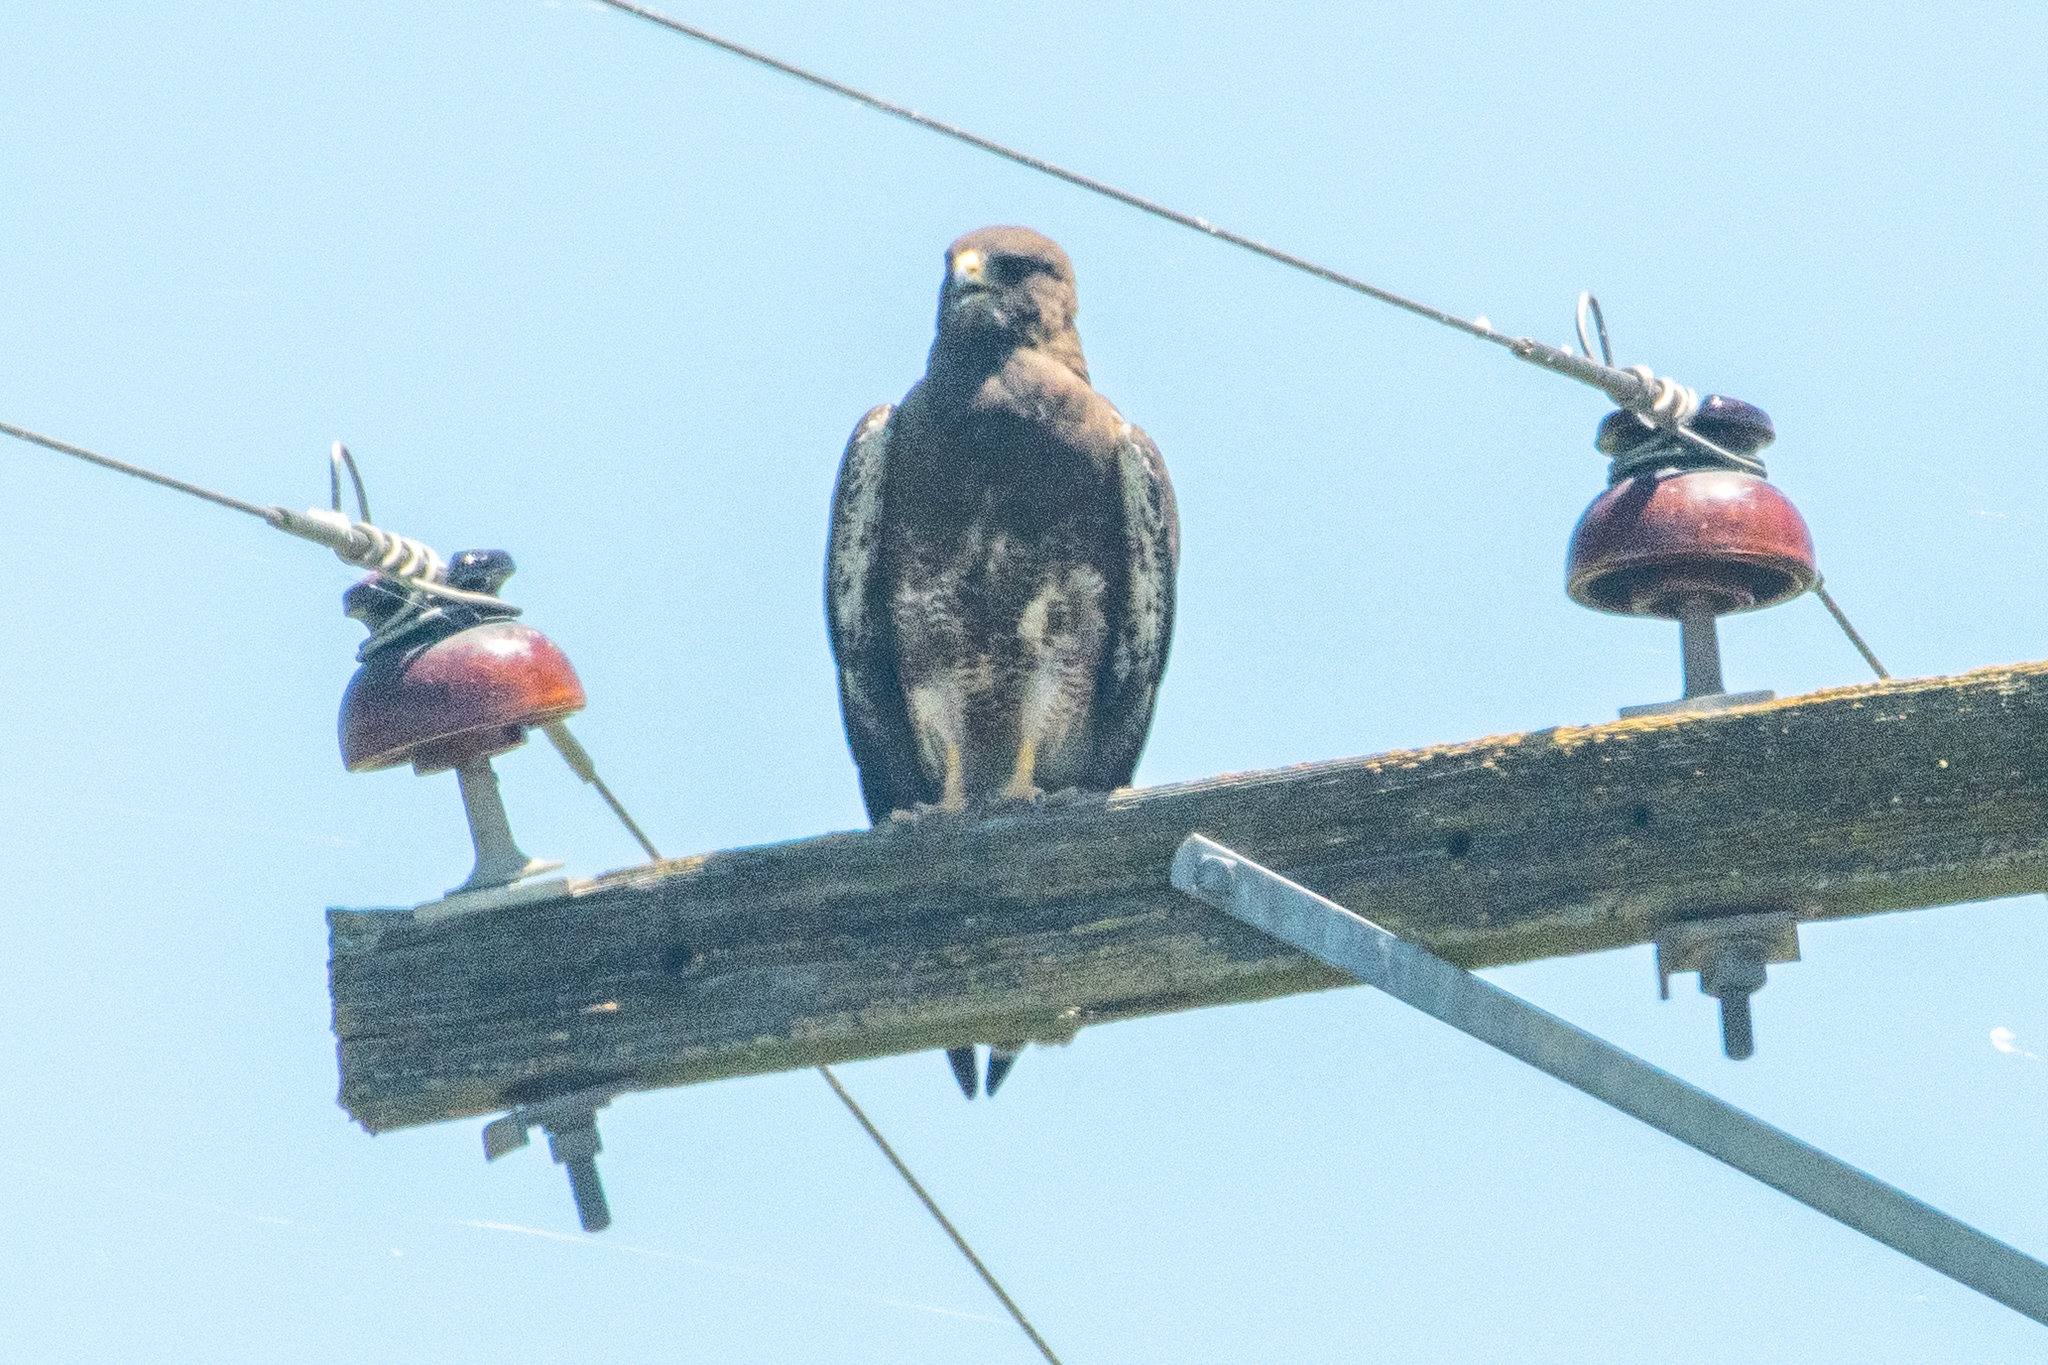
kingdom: Animalia
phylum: Chordata
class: Aves
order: Accipitriformes
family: Accipitridae
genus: Buteo
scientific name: Buteo swainsoni
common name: Swainson's hawk
